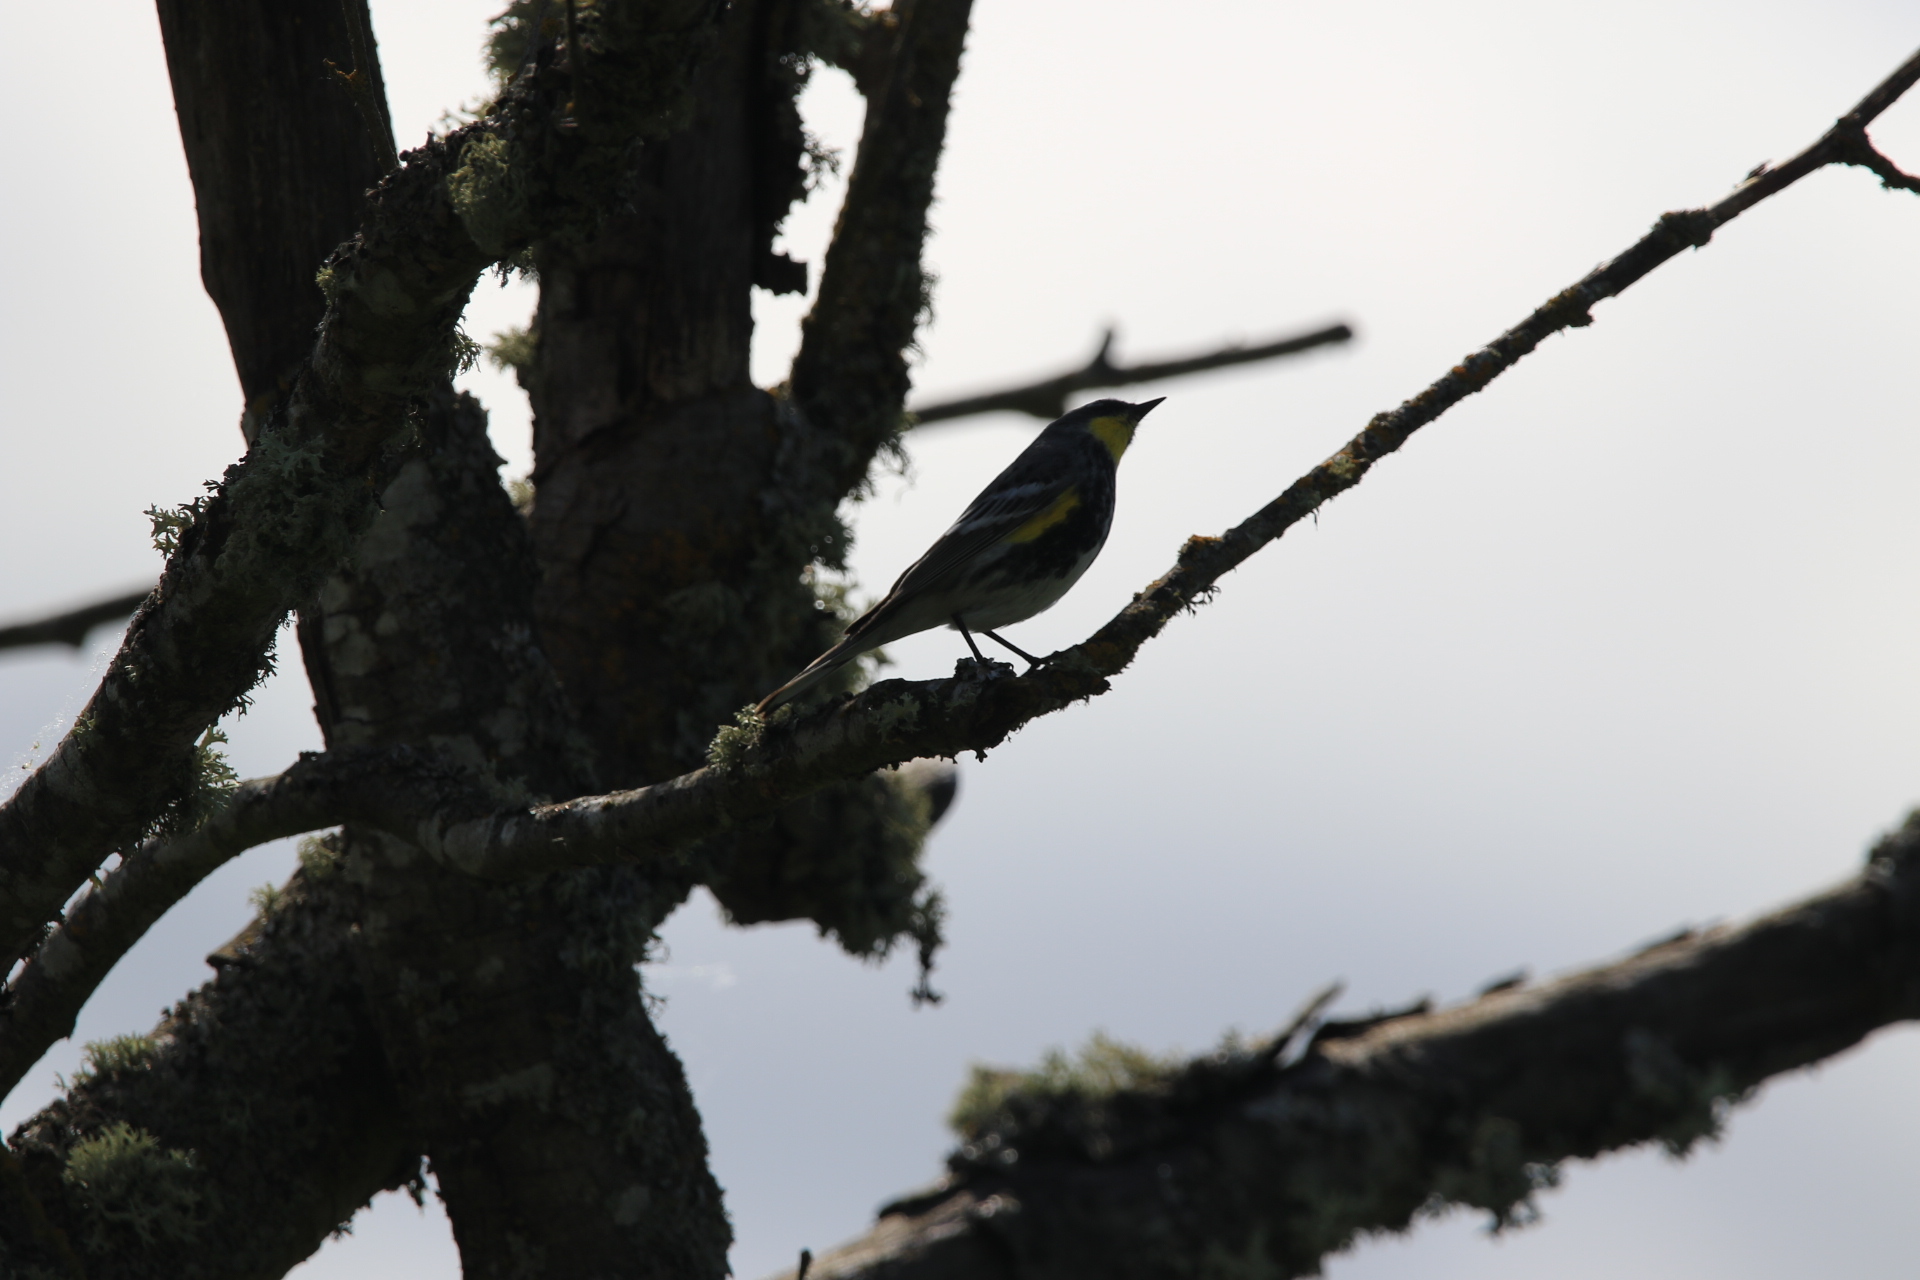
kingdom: Animalia
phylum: Chordata
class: Aves
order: Passeriformes
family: Parulidae
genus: Setophaga
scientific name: Setophaga coronata
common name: Myrtle warbler
